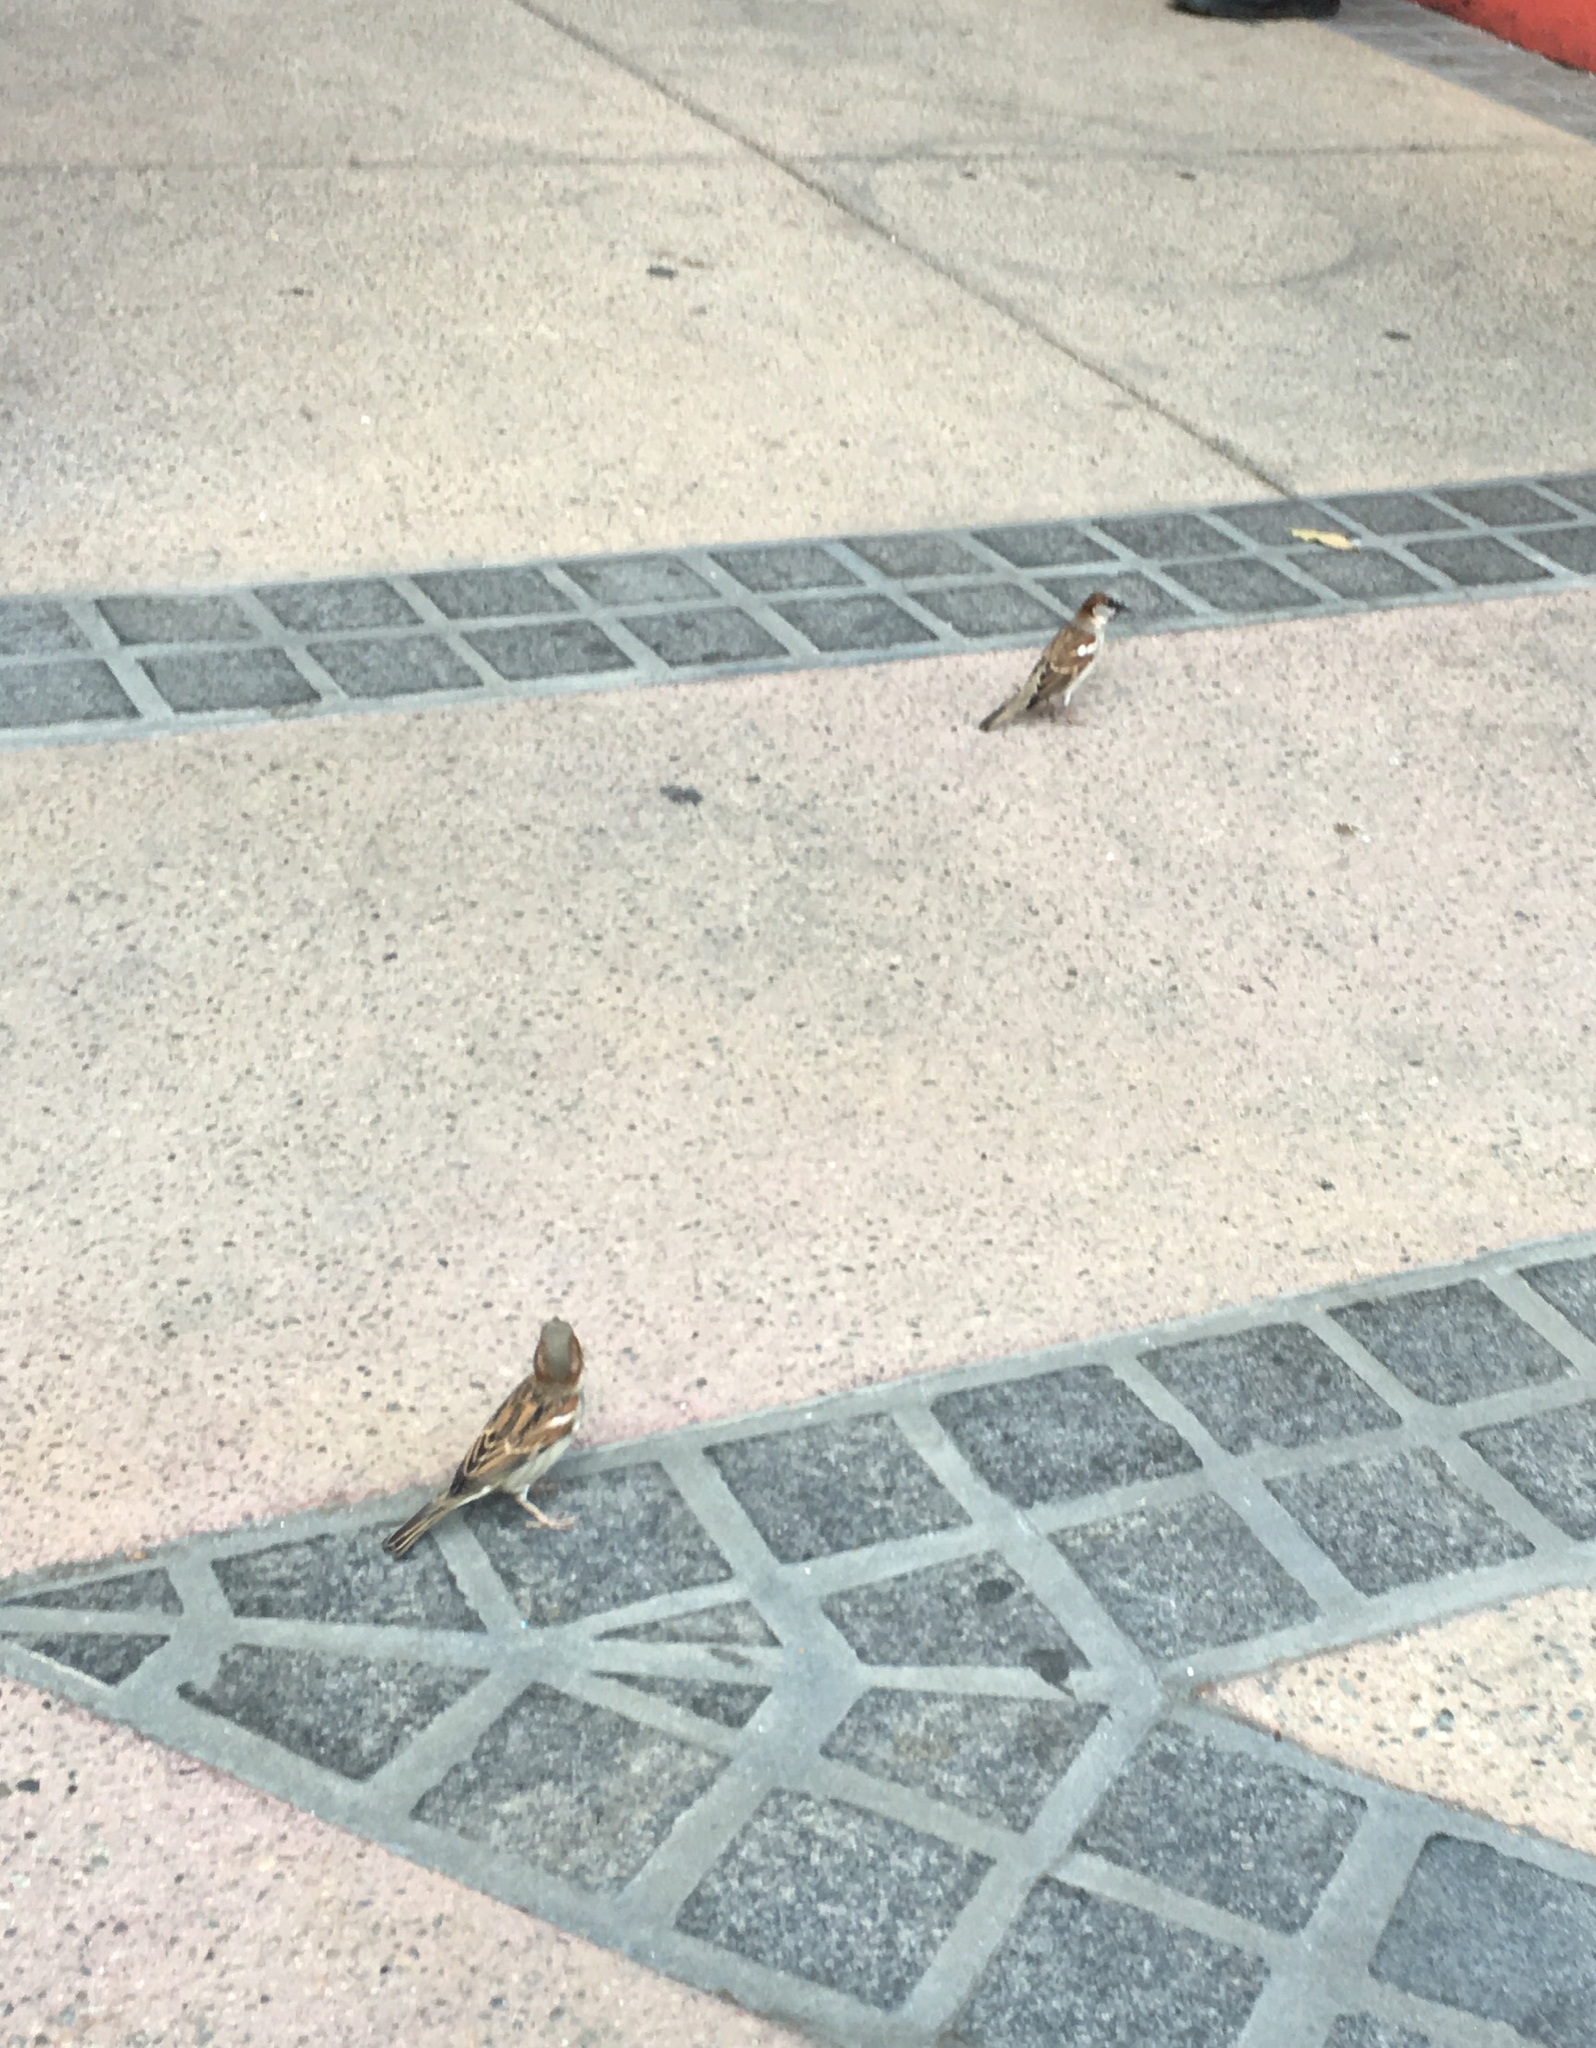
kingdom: Animalia
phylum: Chordata
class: Aves
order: Passeriformes
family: Passeridae
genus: Passer
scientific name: Passer domesticus
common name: House sparrow
